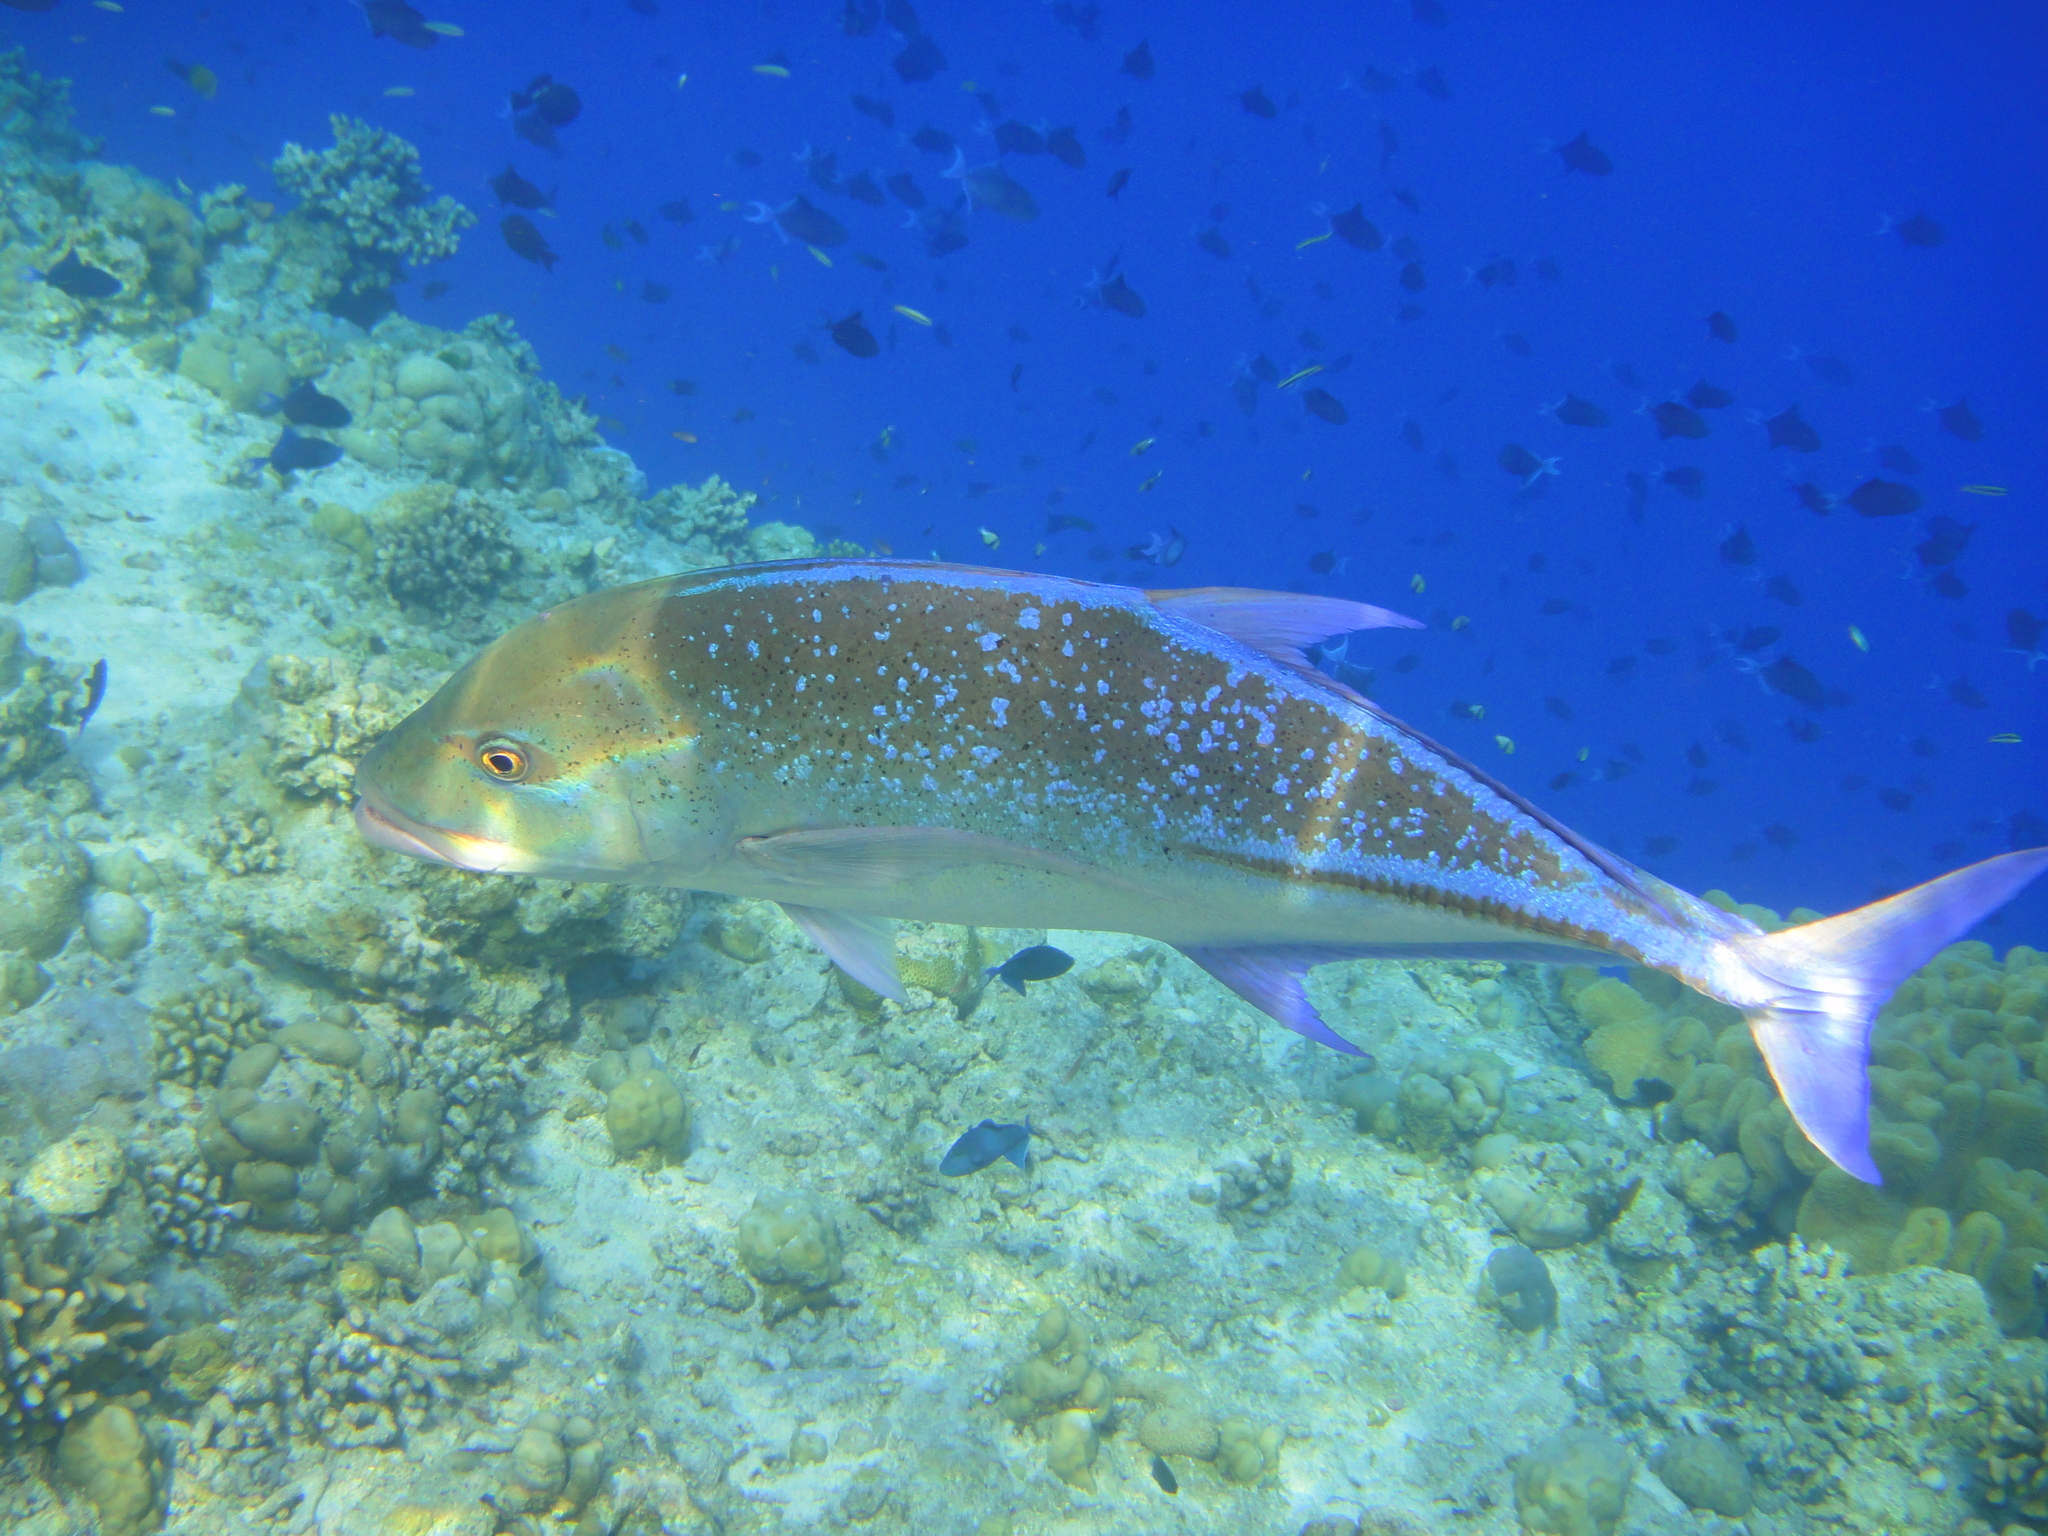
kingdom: Animalia
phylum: Chordata
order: Perciformes
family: Carangidae
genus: Caranx
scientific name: Caranx melampygus
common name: Bluefin trevally
